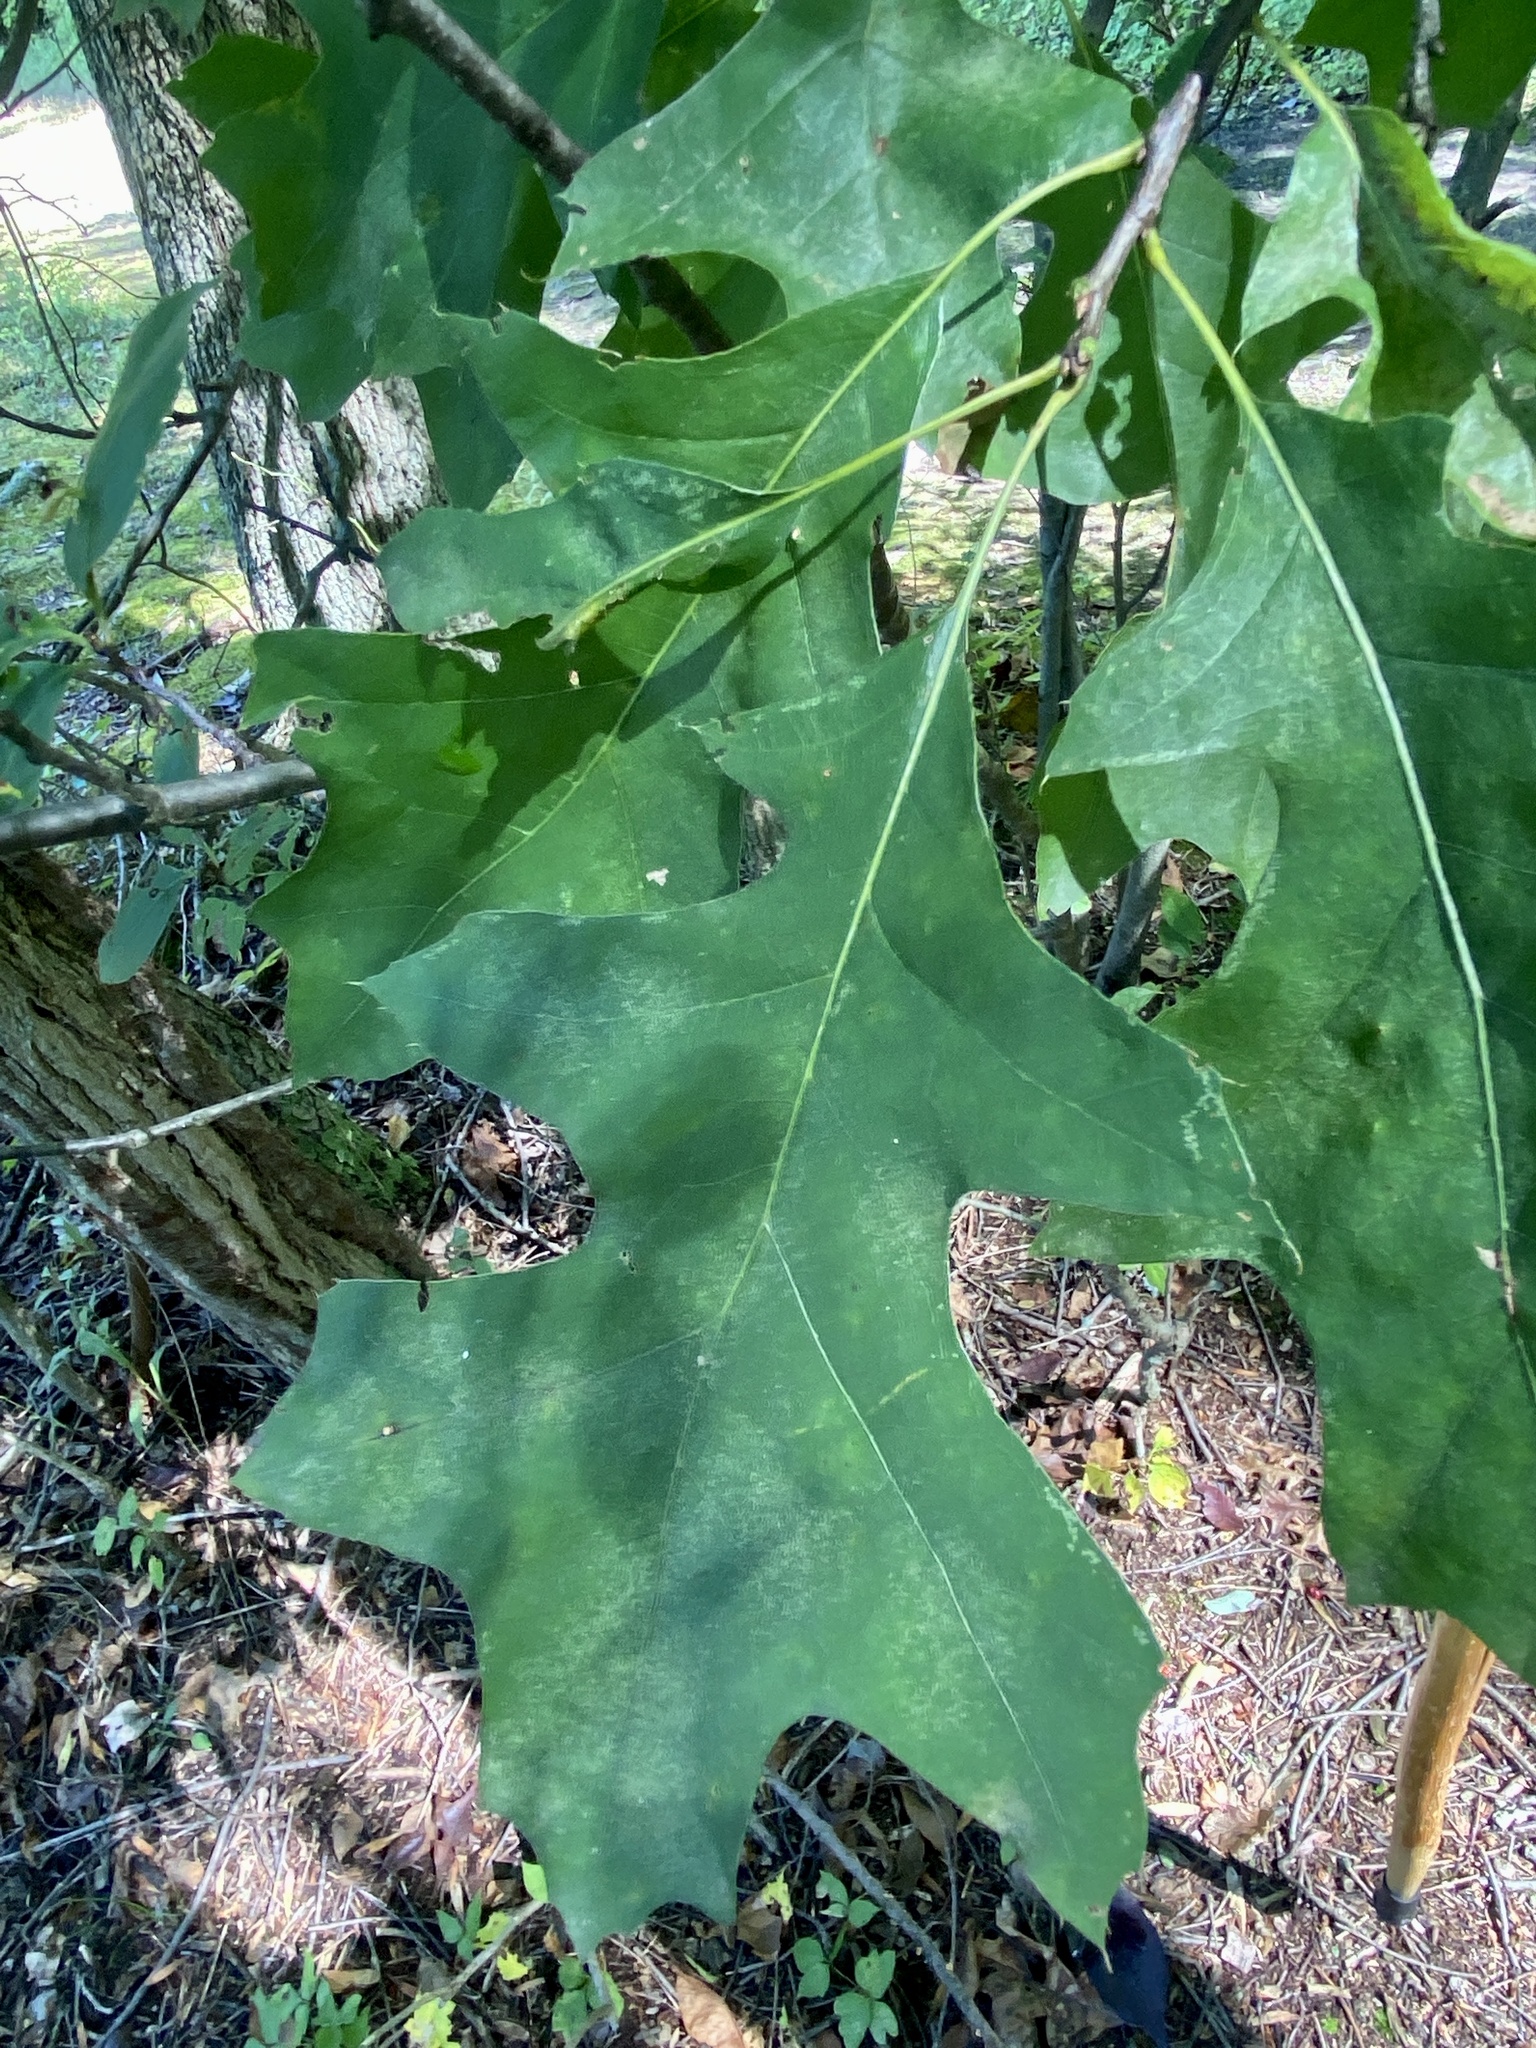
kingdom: Animalia
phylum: Arthropoda
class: Insecta
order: Diptera
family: Cecidomyiidae
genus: Polystepha
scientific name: Polystepha pilulae
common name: Oak leaf gall midge
